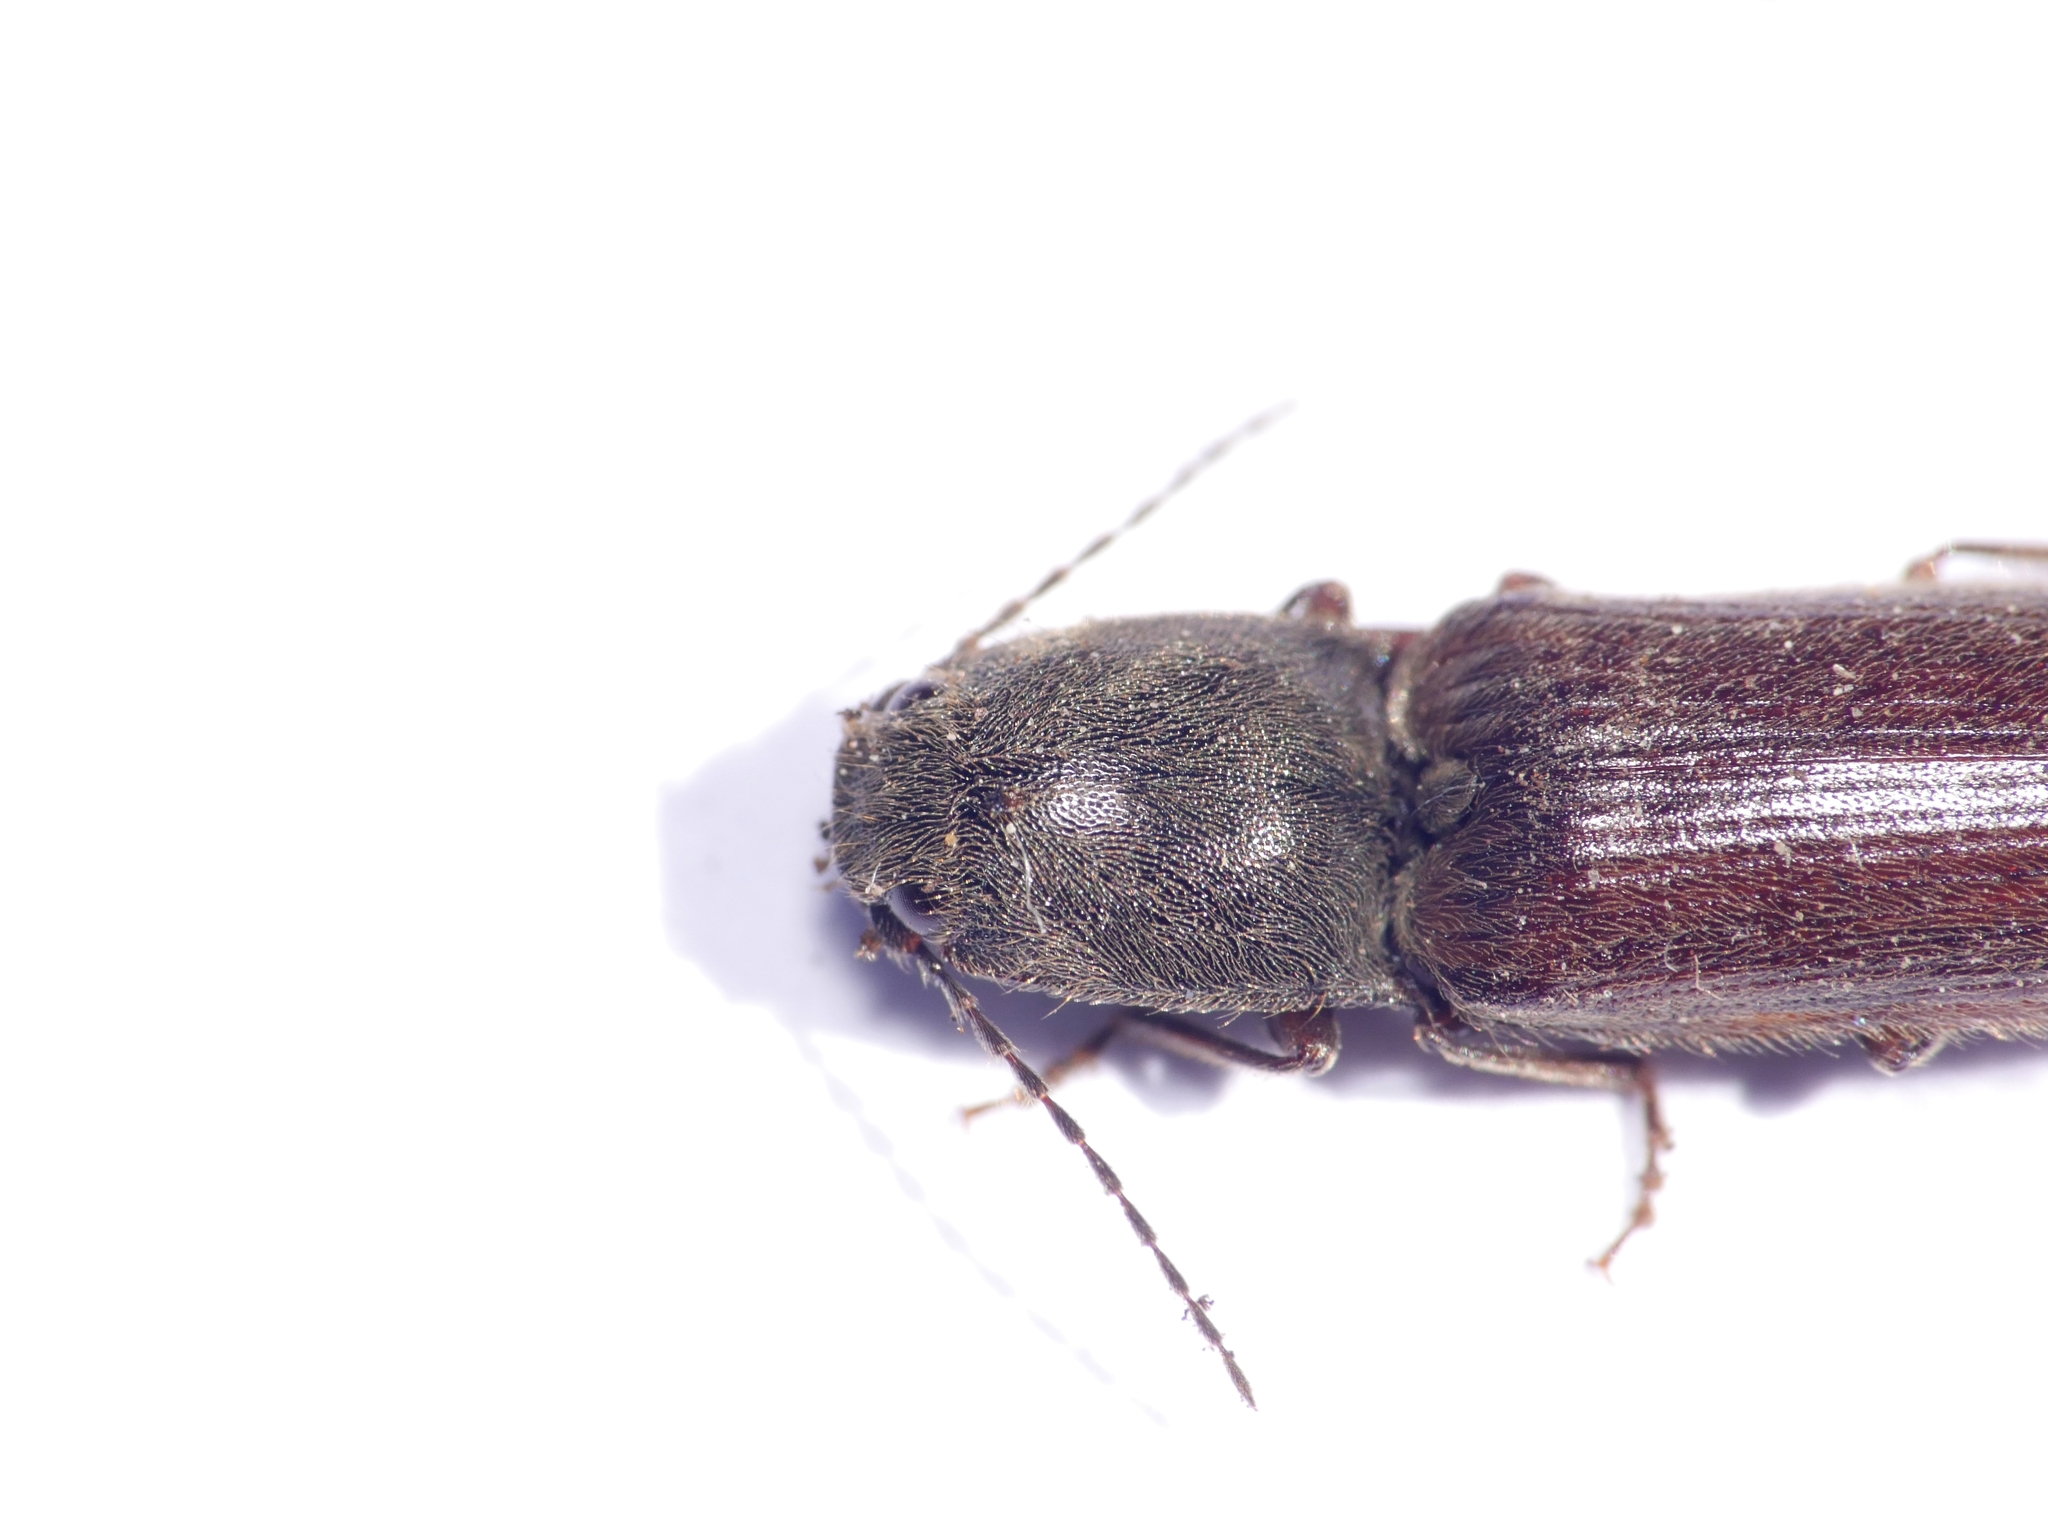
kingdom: Animalia
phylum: Arthropoda
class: Insecta
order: Coleoptera
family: Elateridae
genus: Athous
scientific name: Athous haemorrhoidalis
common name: Red-brown click beetle
